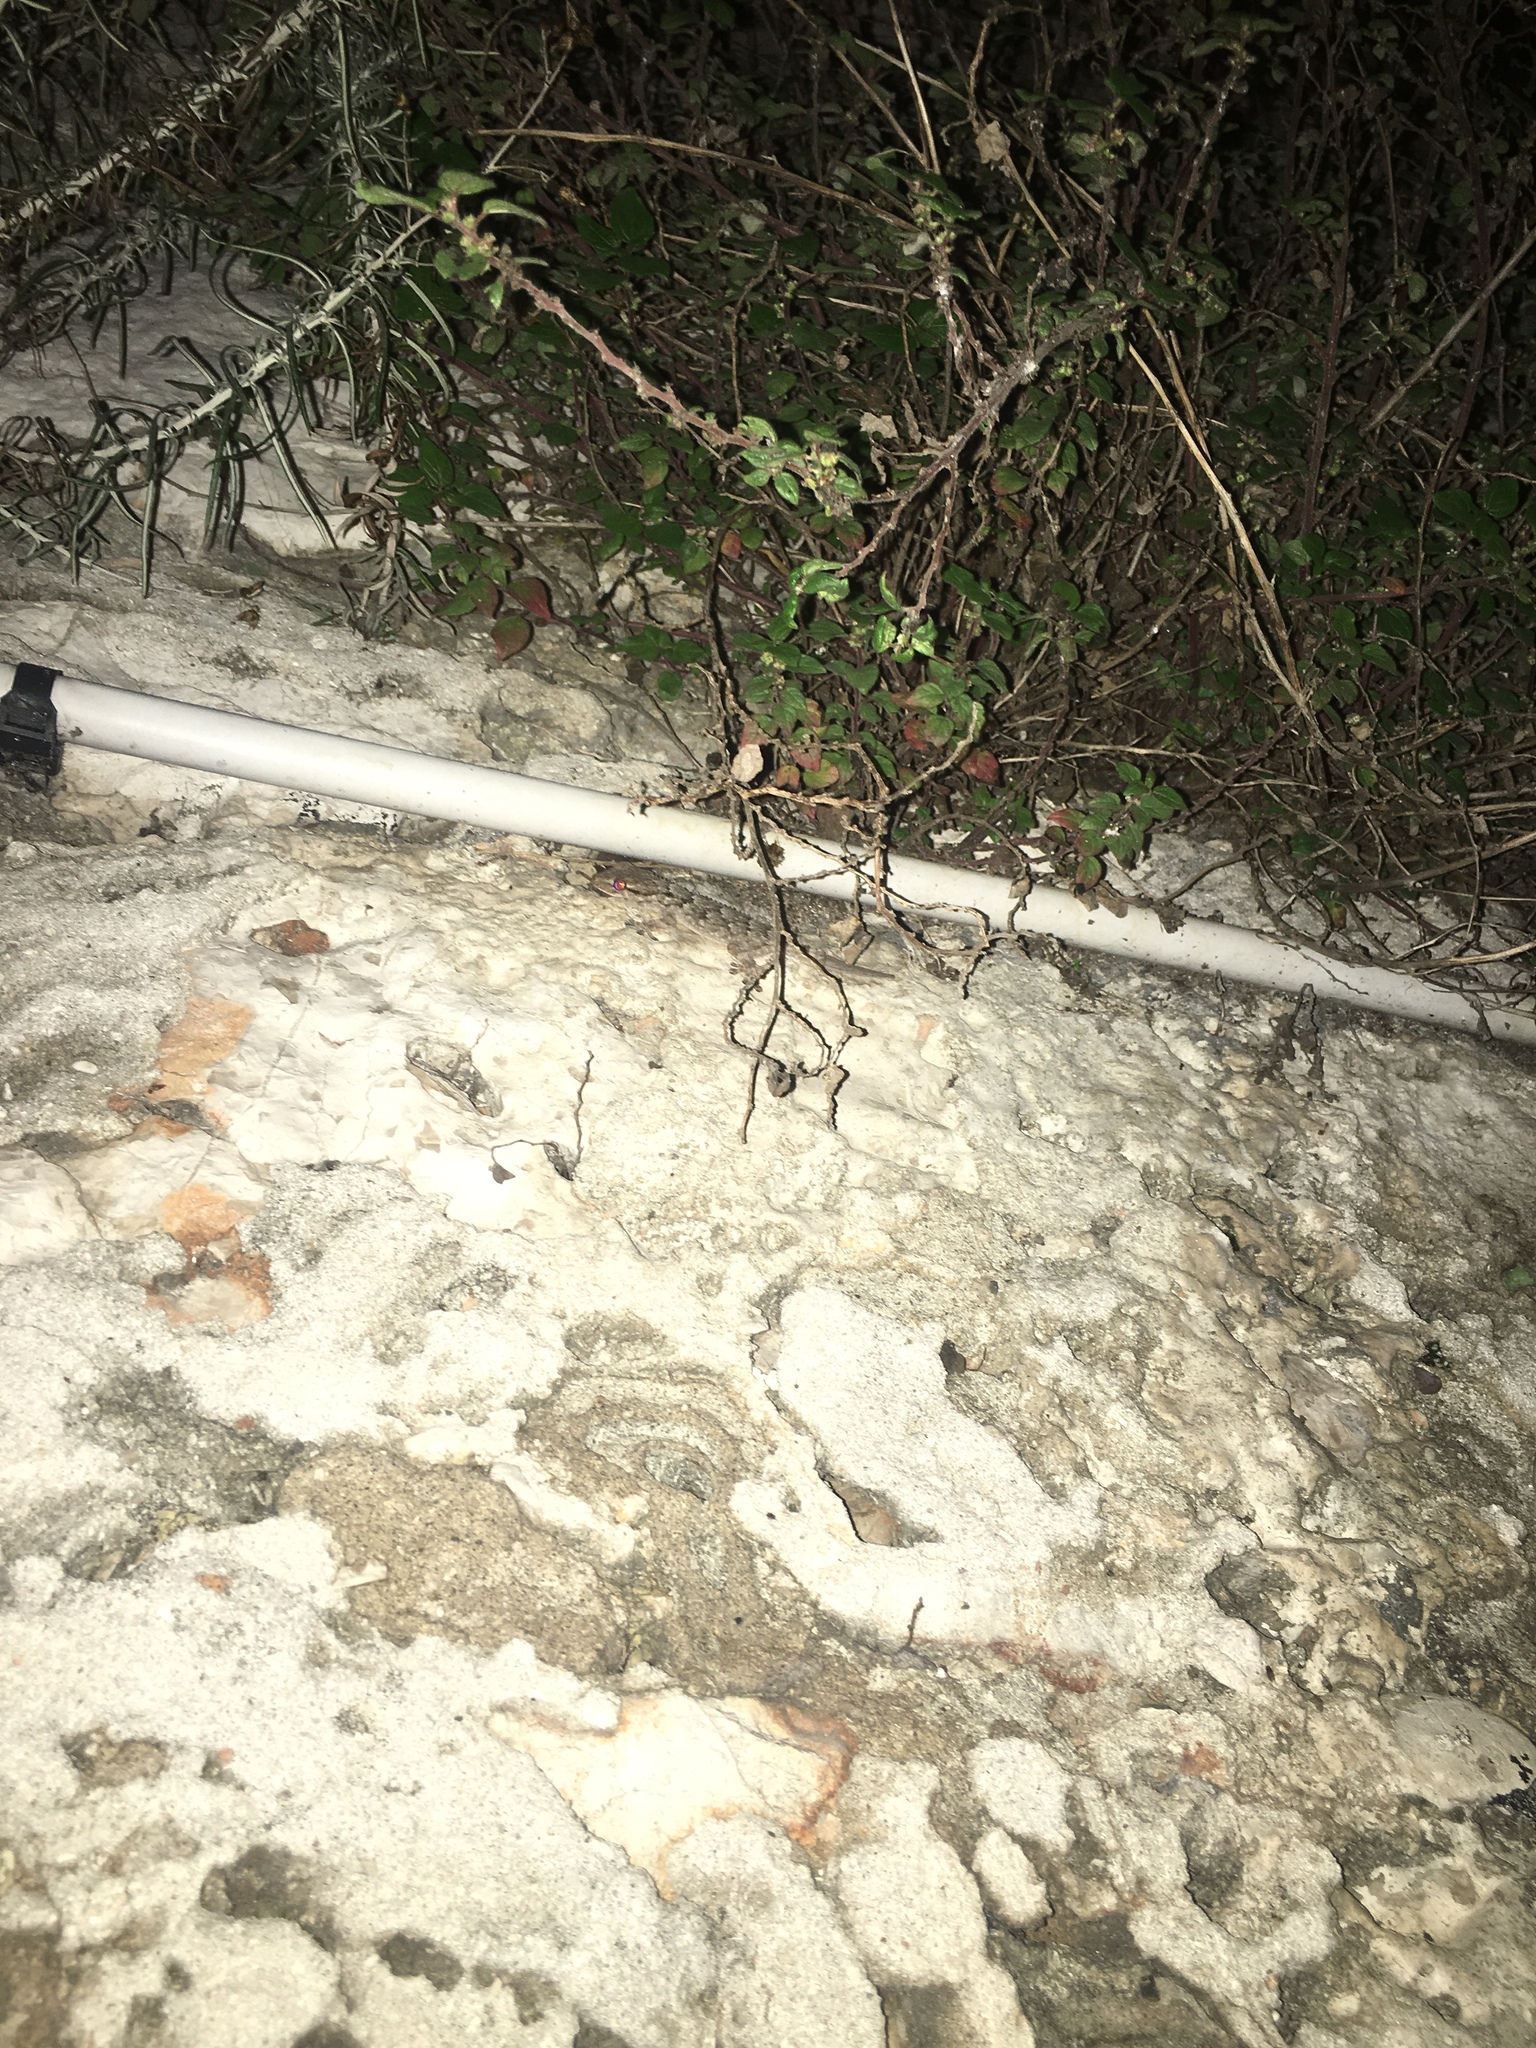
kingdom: Animalia
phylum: Chordata
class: Squamata
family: Phyllodactylidae
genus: Tarentola
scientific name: Tarentola mauritanica
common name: Moorish gecko
